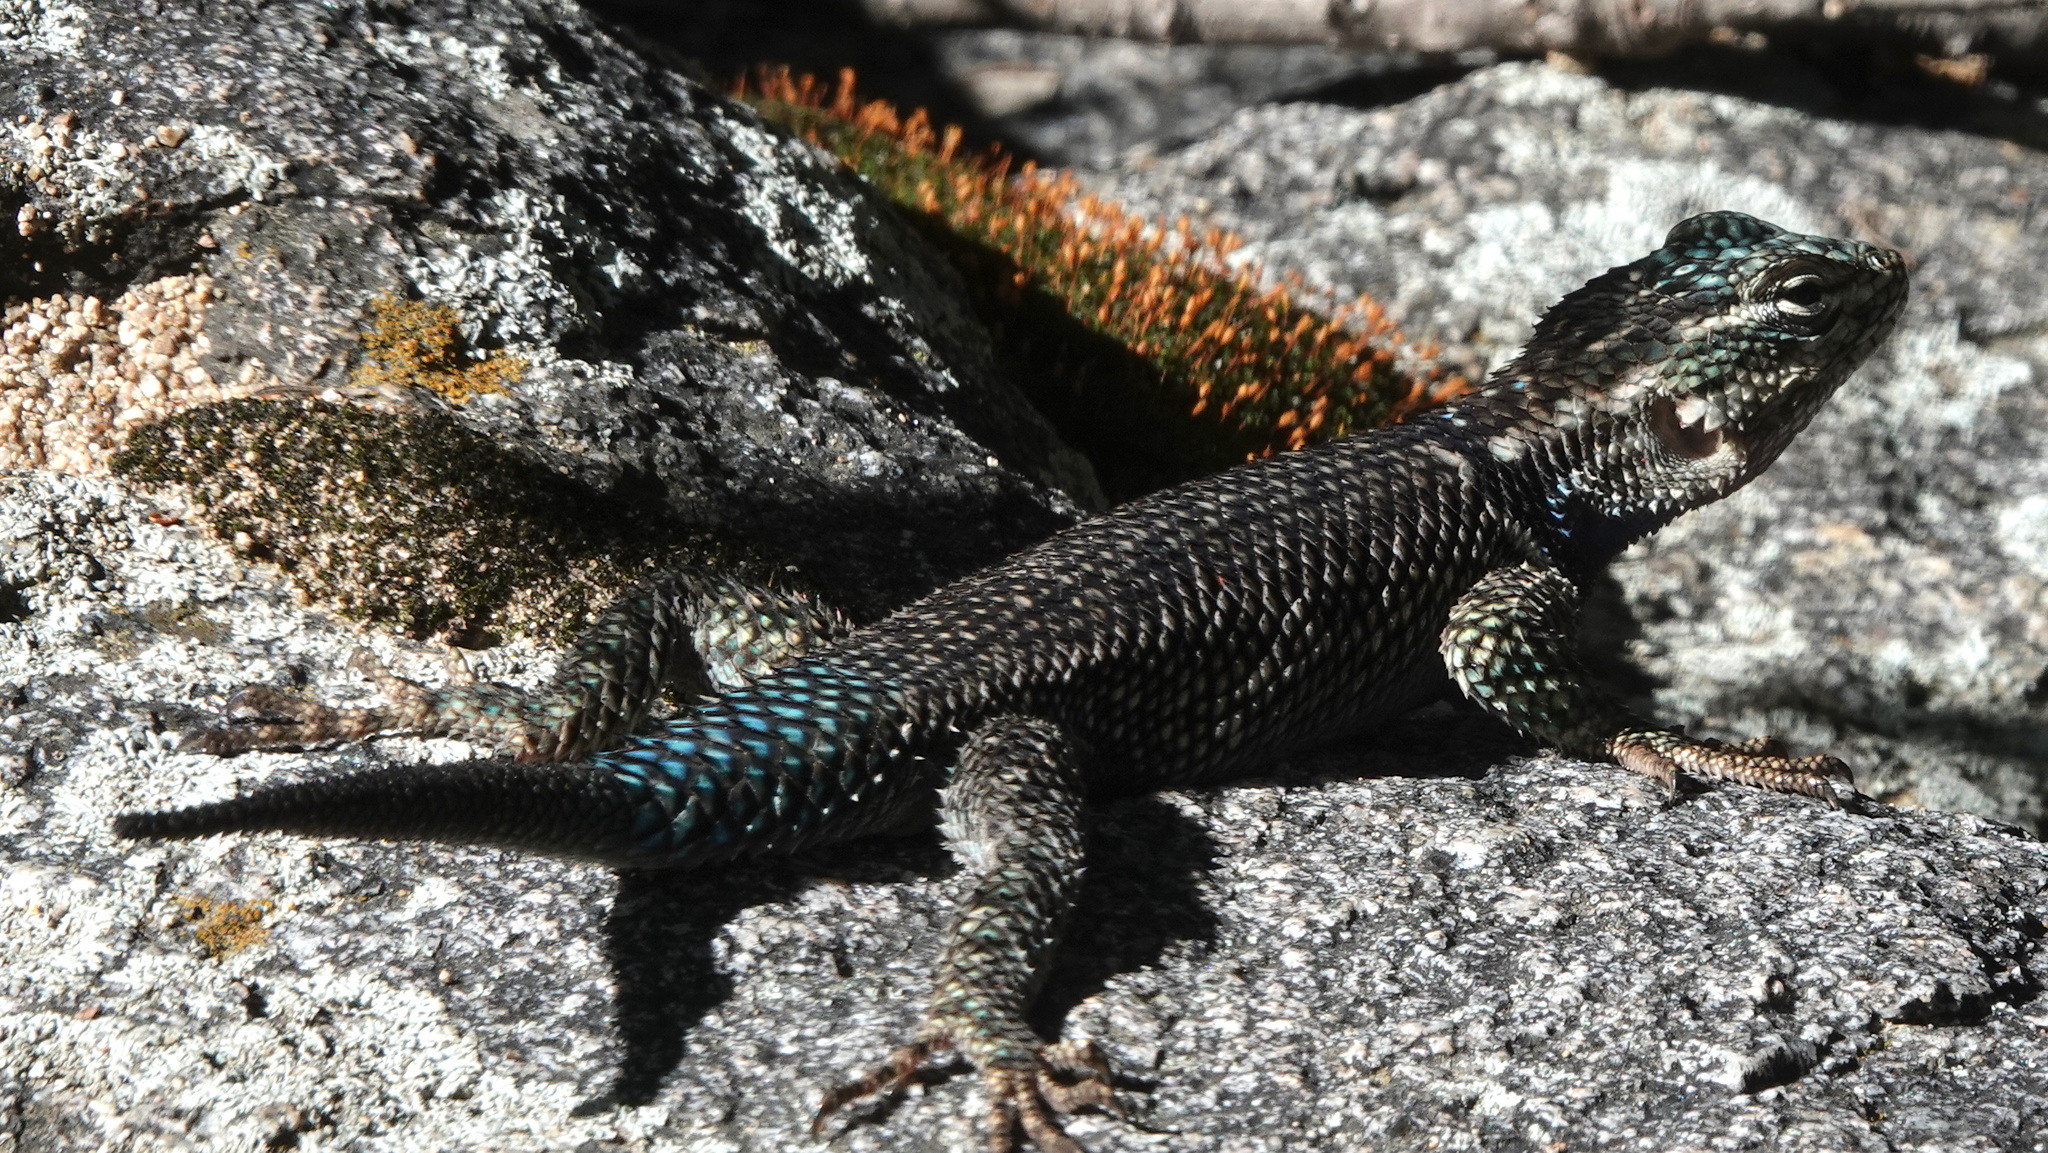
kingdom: Animalia
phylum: Chordata
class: Squamata
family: Phrynosomatidae
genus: Sceloporus
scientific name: Sceloporus jarrovii
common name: Yarrow's spiny lizard
